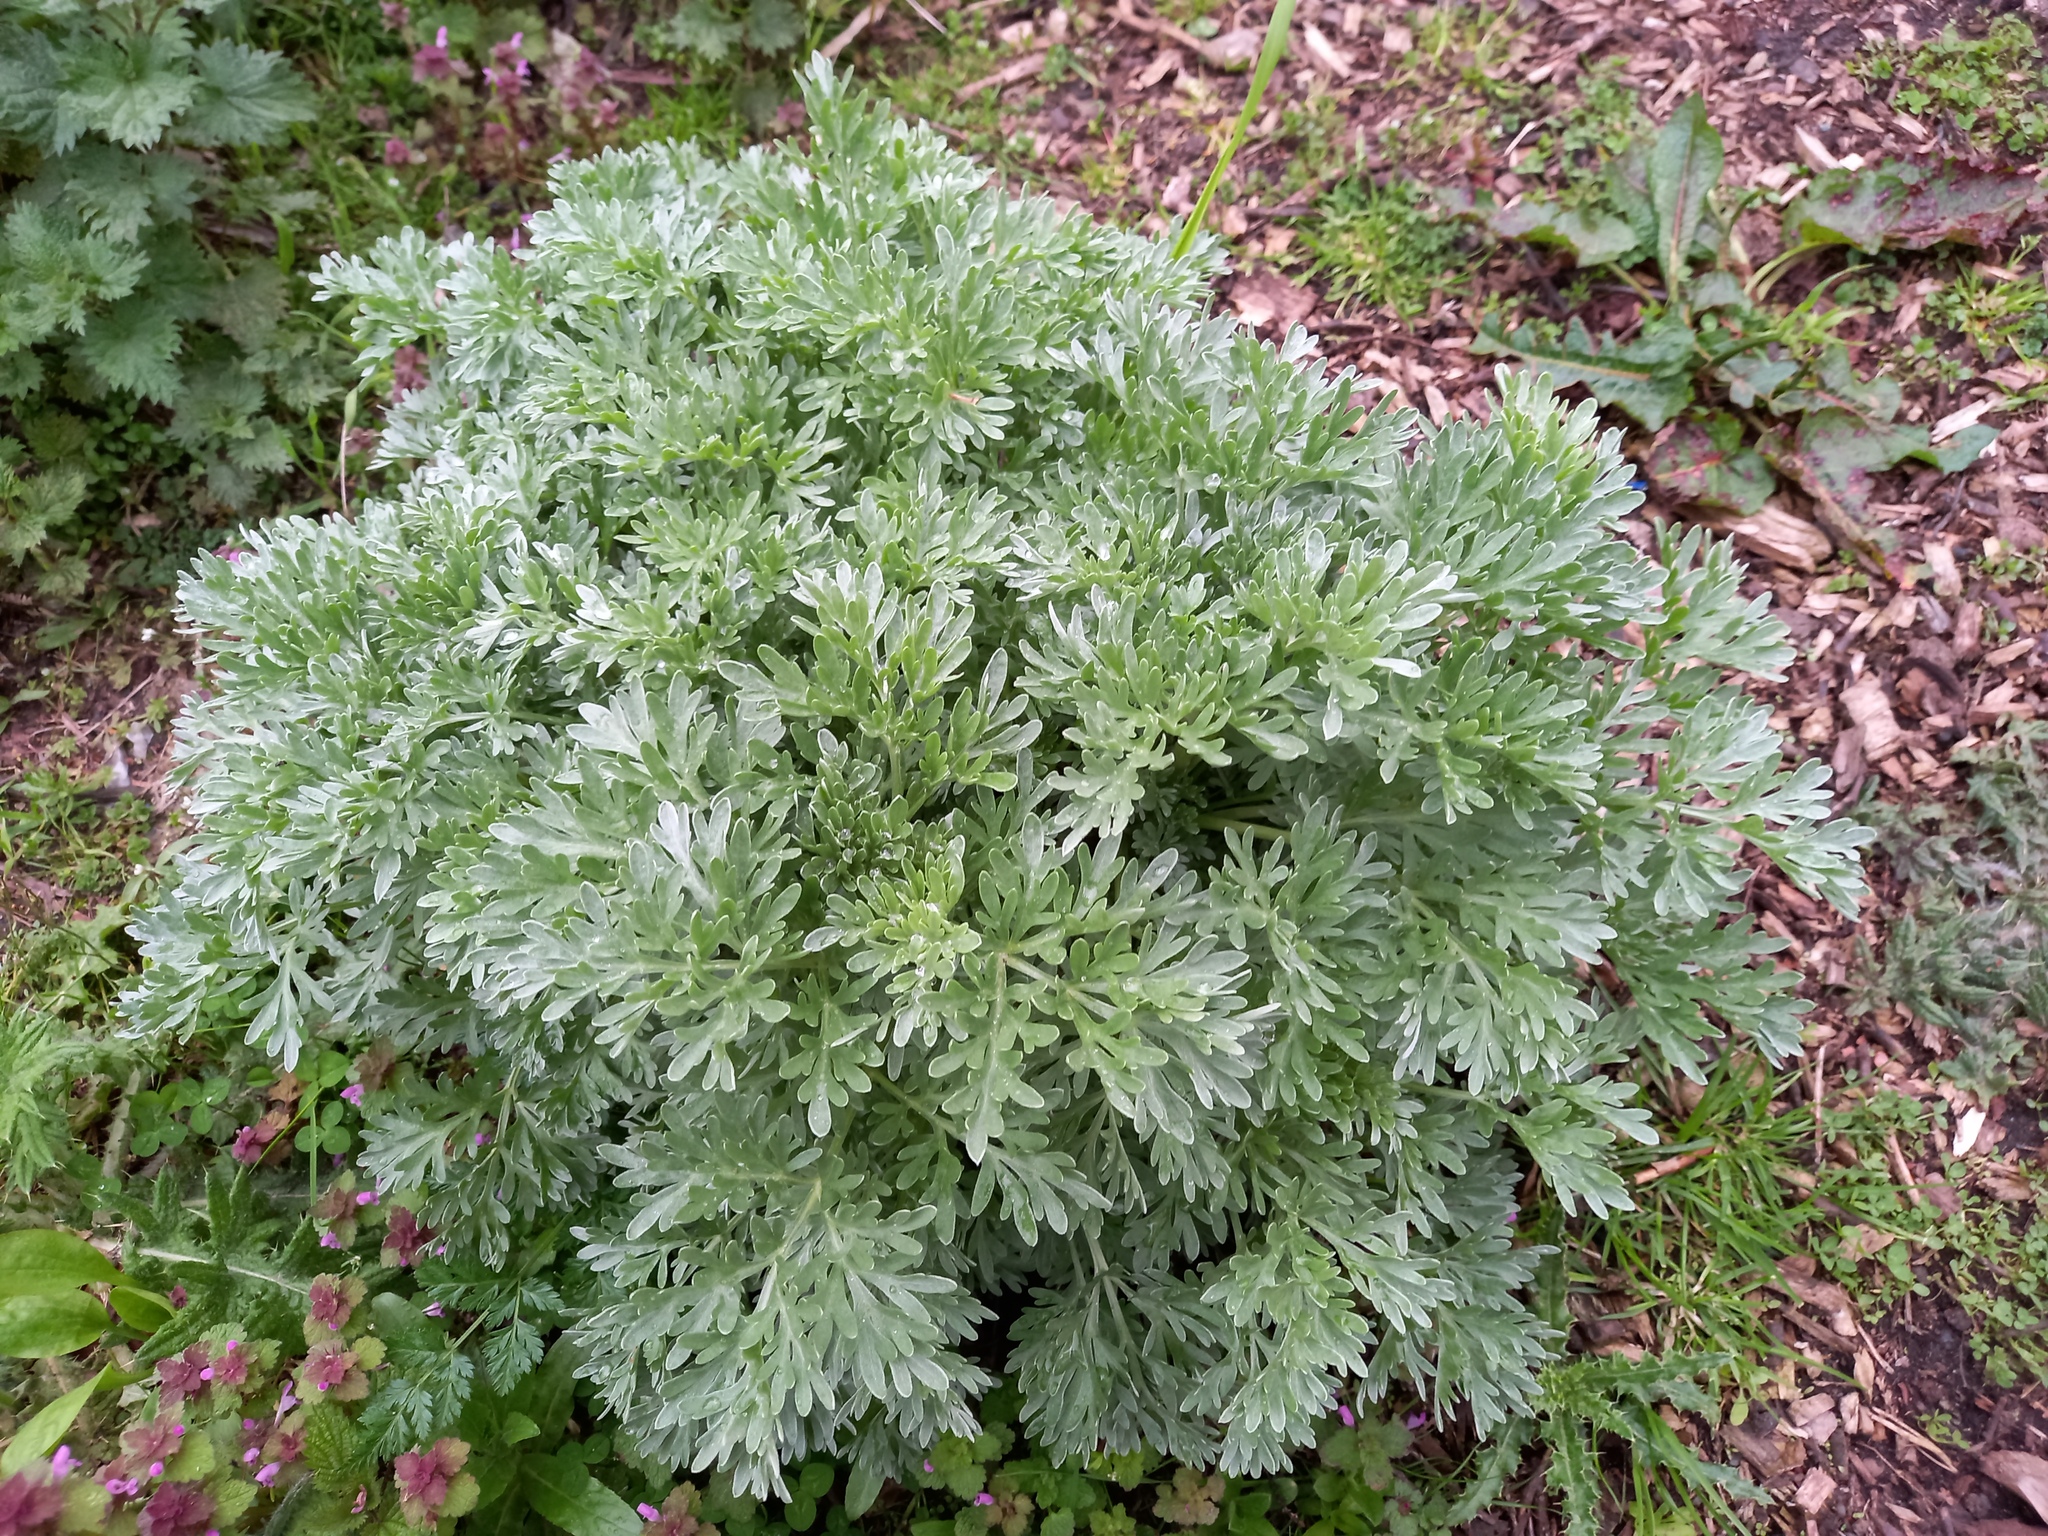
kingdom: Plantae
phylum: Tracheophyta
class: Magnoliopsida
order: Asterales
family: Asteraceae
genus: Artemisia
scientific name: Artemisia absinthium
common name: Wormwood
